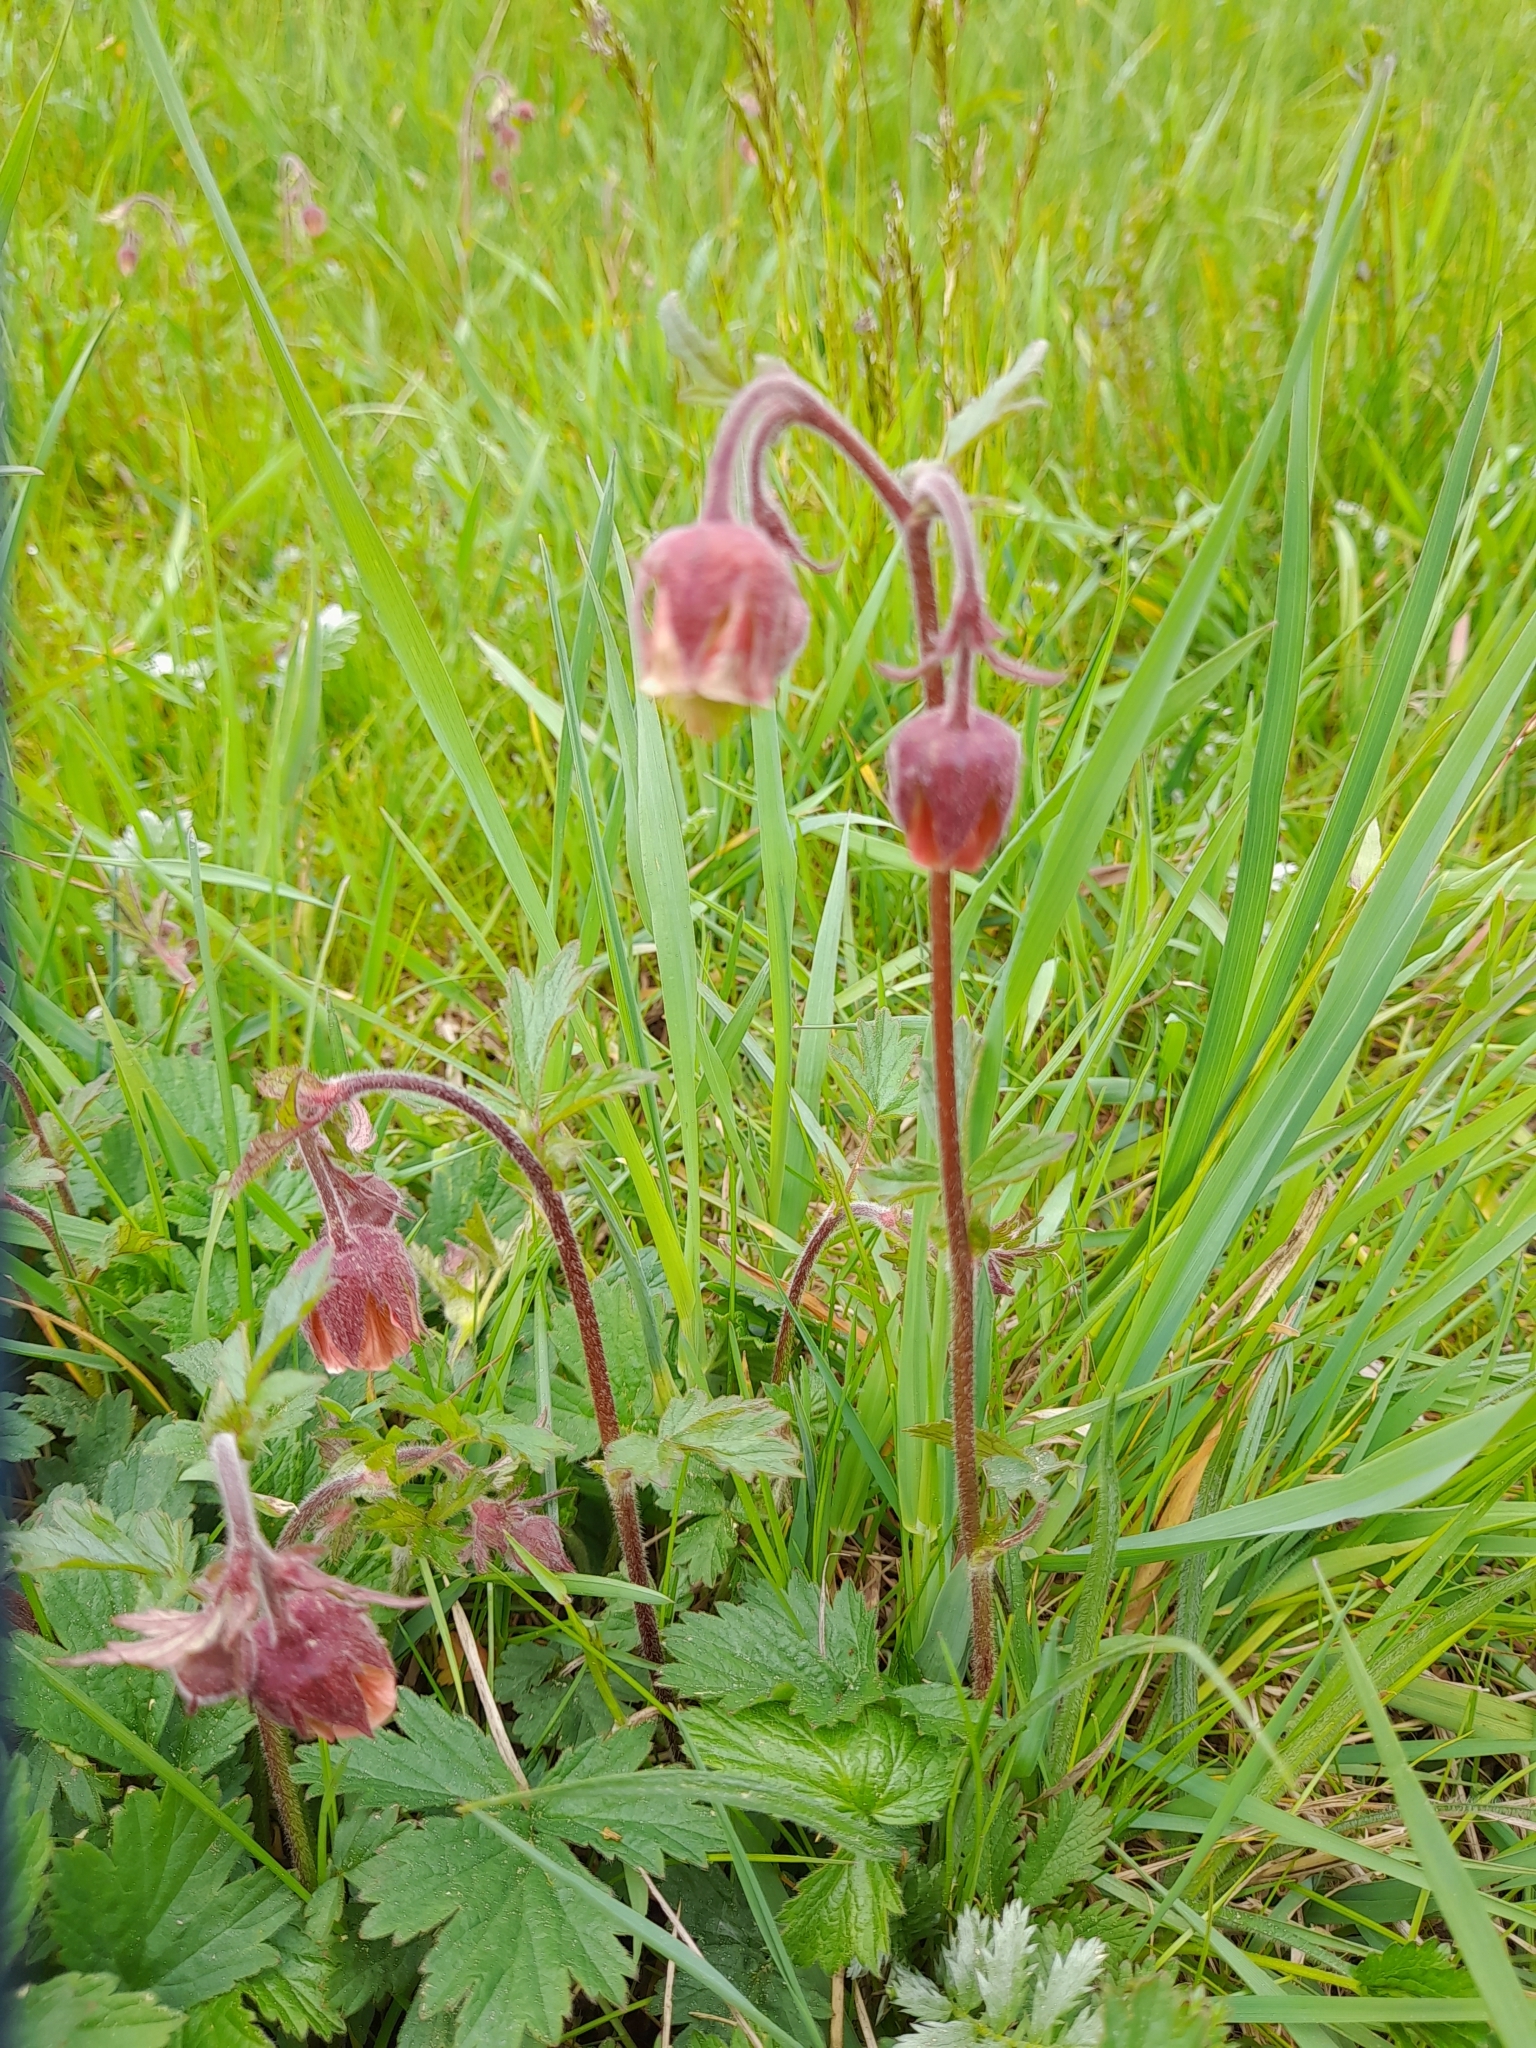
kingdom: Plantae
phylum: Tracheophyta
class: Magnoliopsida
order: Rosales
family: Rosaceae
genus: Geum
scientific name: Geum rivale
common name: Water avens
